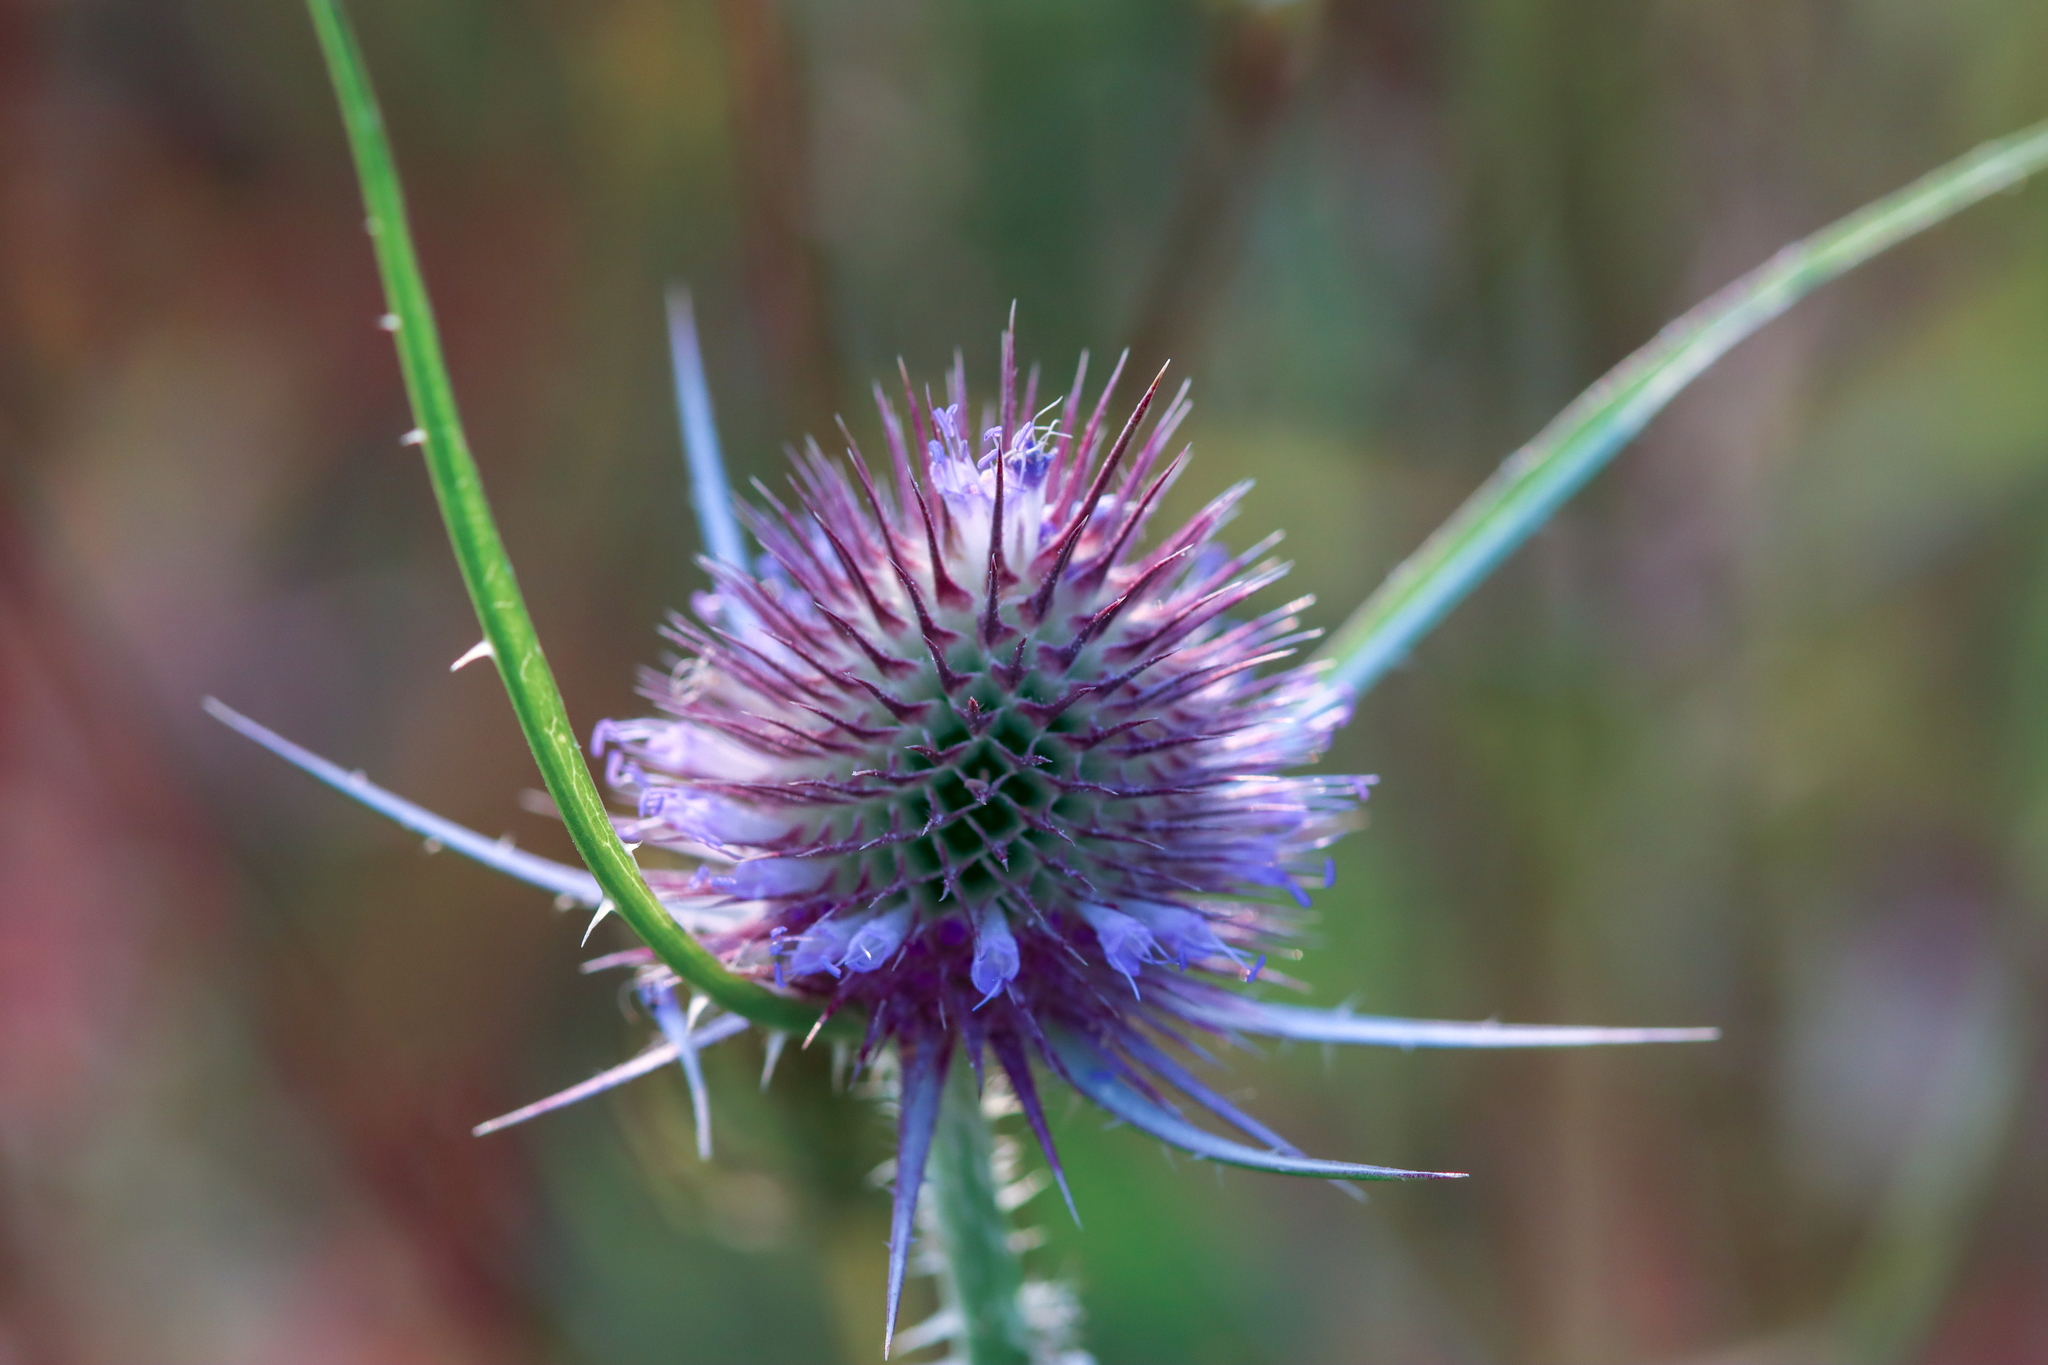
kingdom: Plantae
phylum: Tracheophyta
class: Magnoliopsida
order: Dipsacales
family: Caprifoliaceae
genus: Dipsacus
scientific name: Dipsacus fullonum
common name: Teasel
